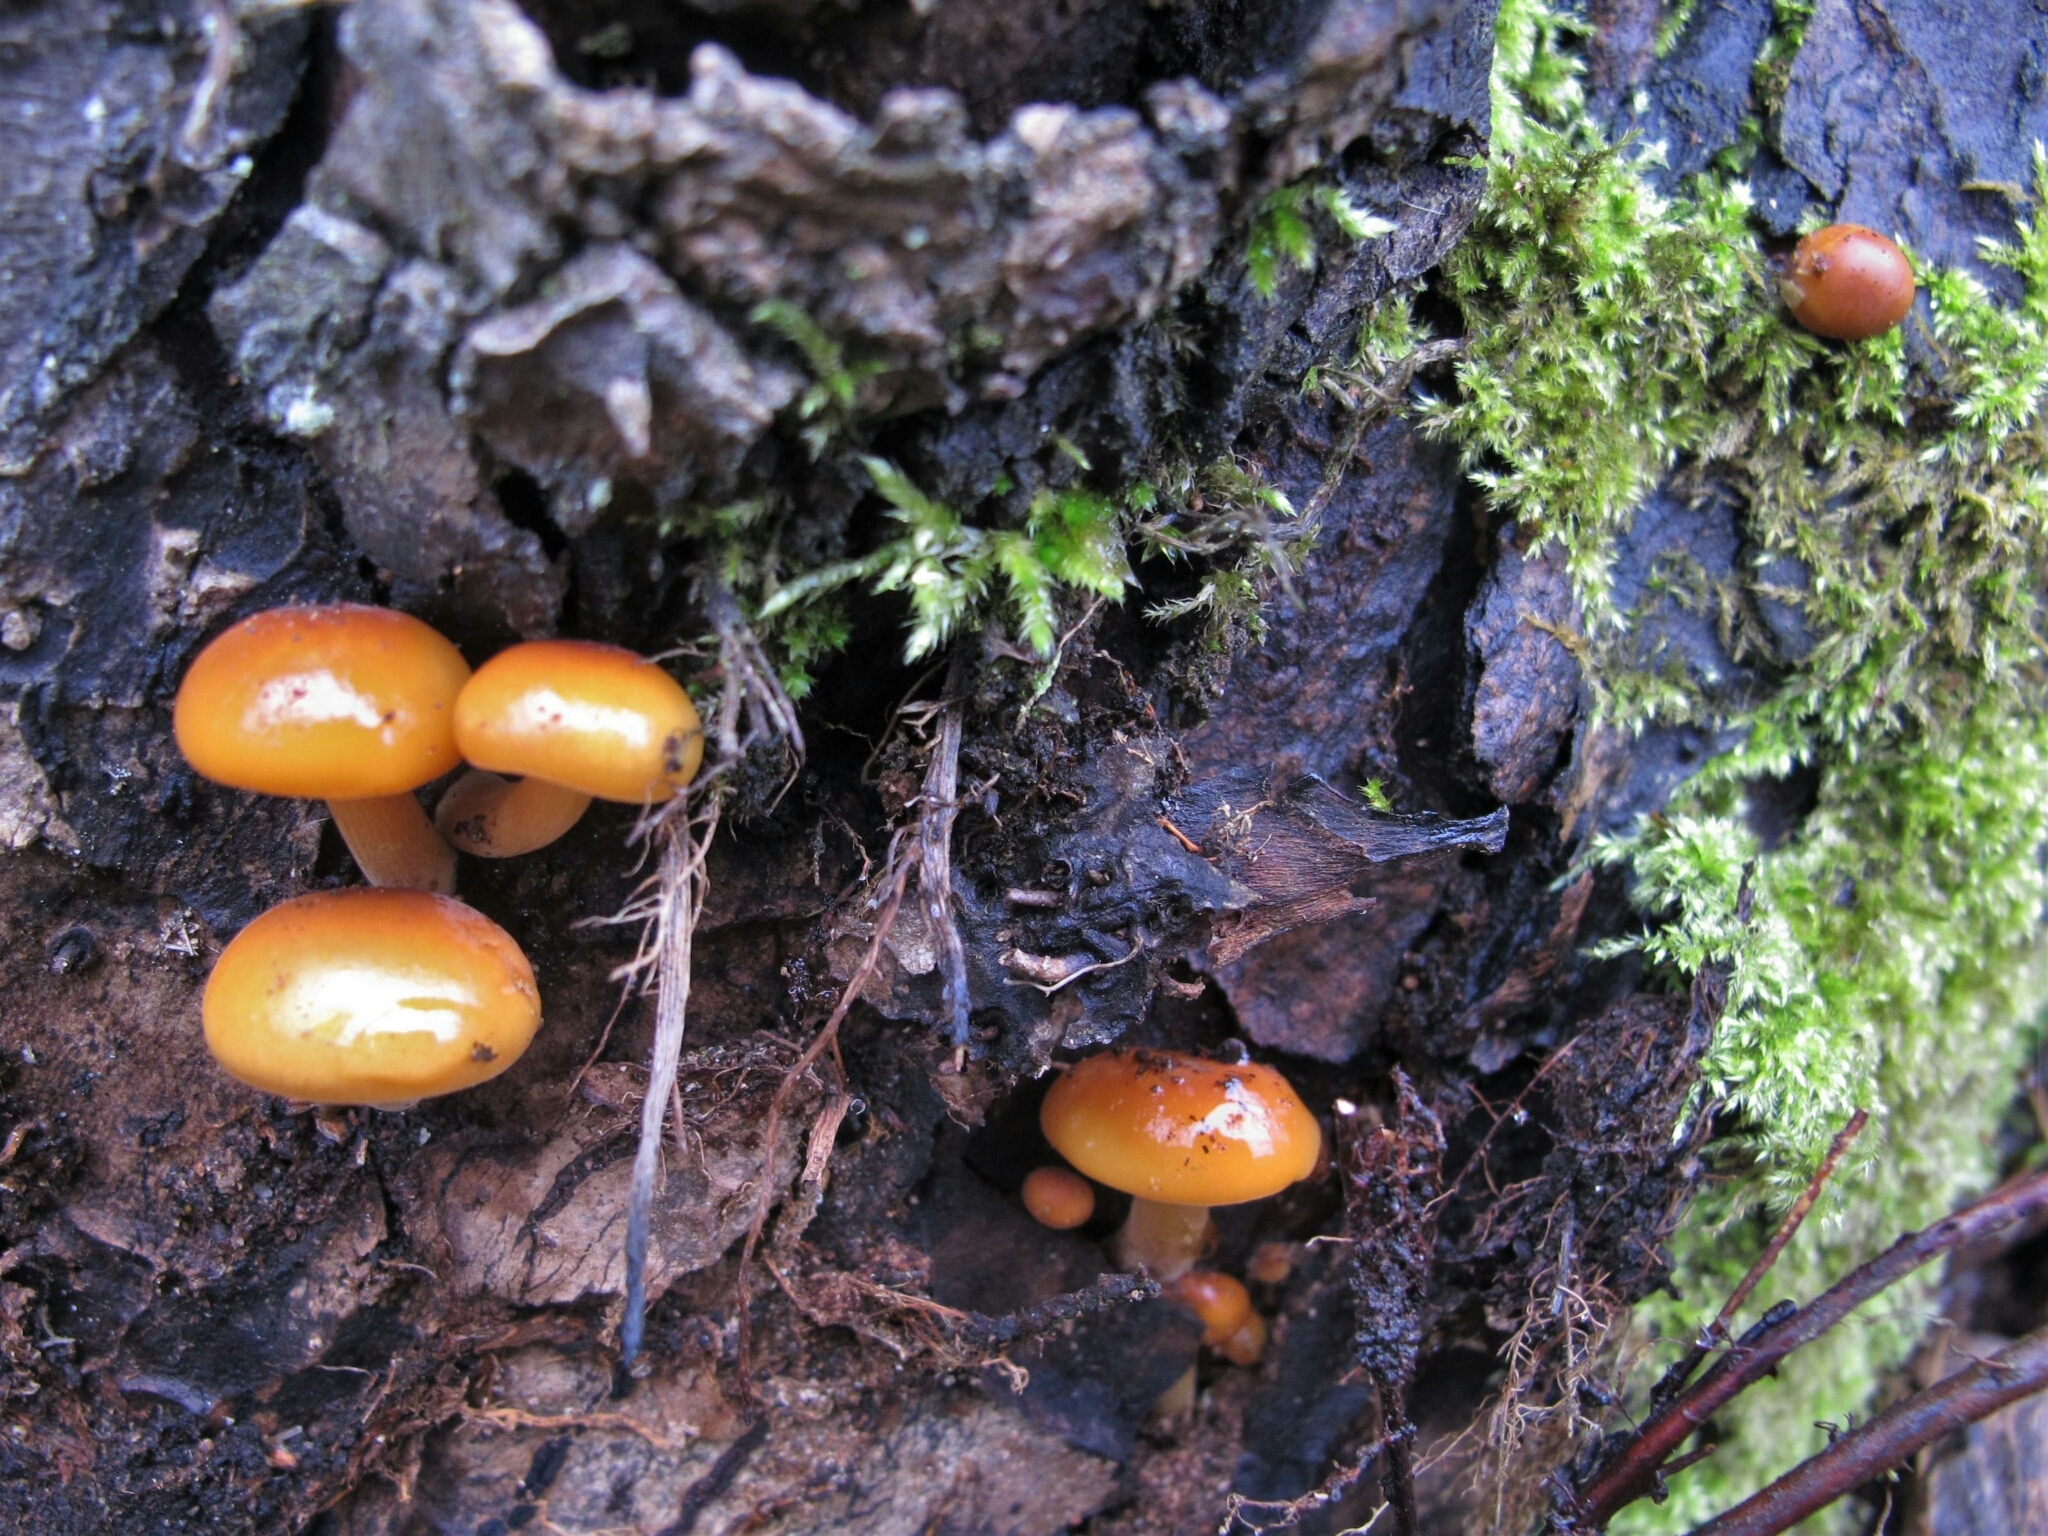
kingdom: Fungi
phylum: Basidiomycota
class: Agaricomycetes
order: Agaricales
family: Physalacriaceae
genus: Flammulina
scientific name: Flammulina
